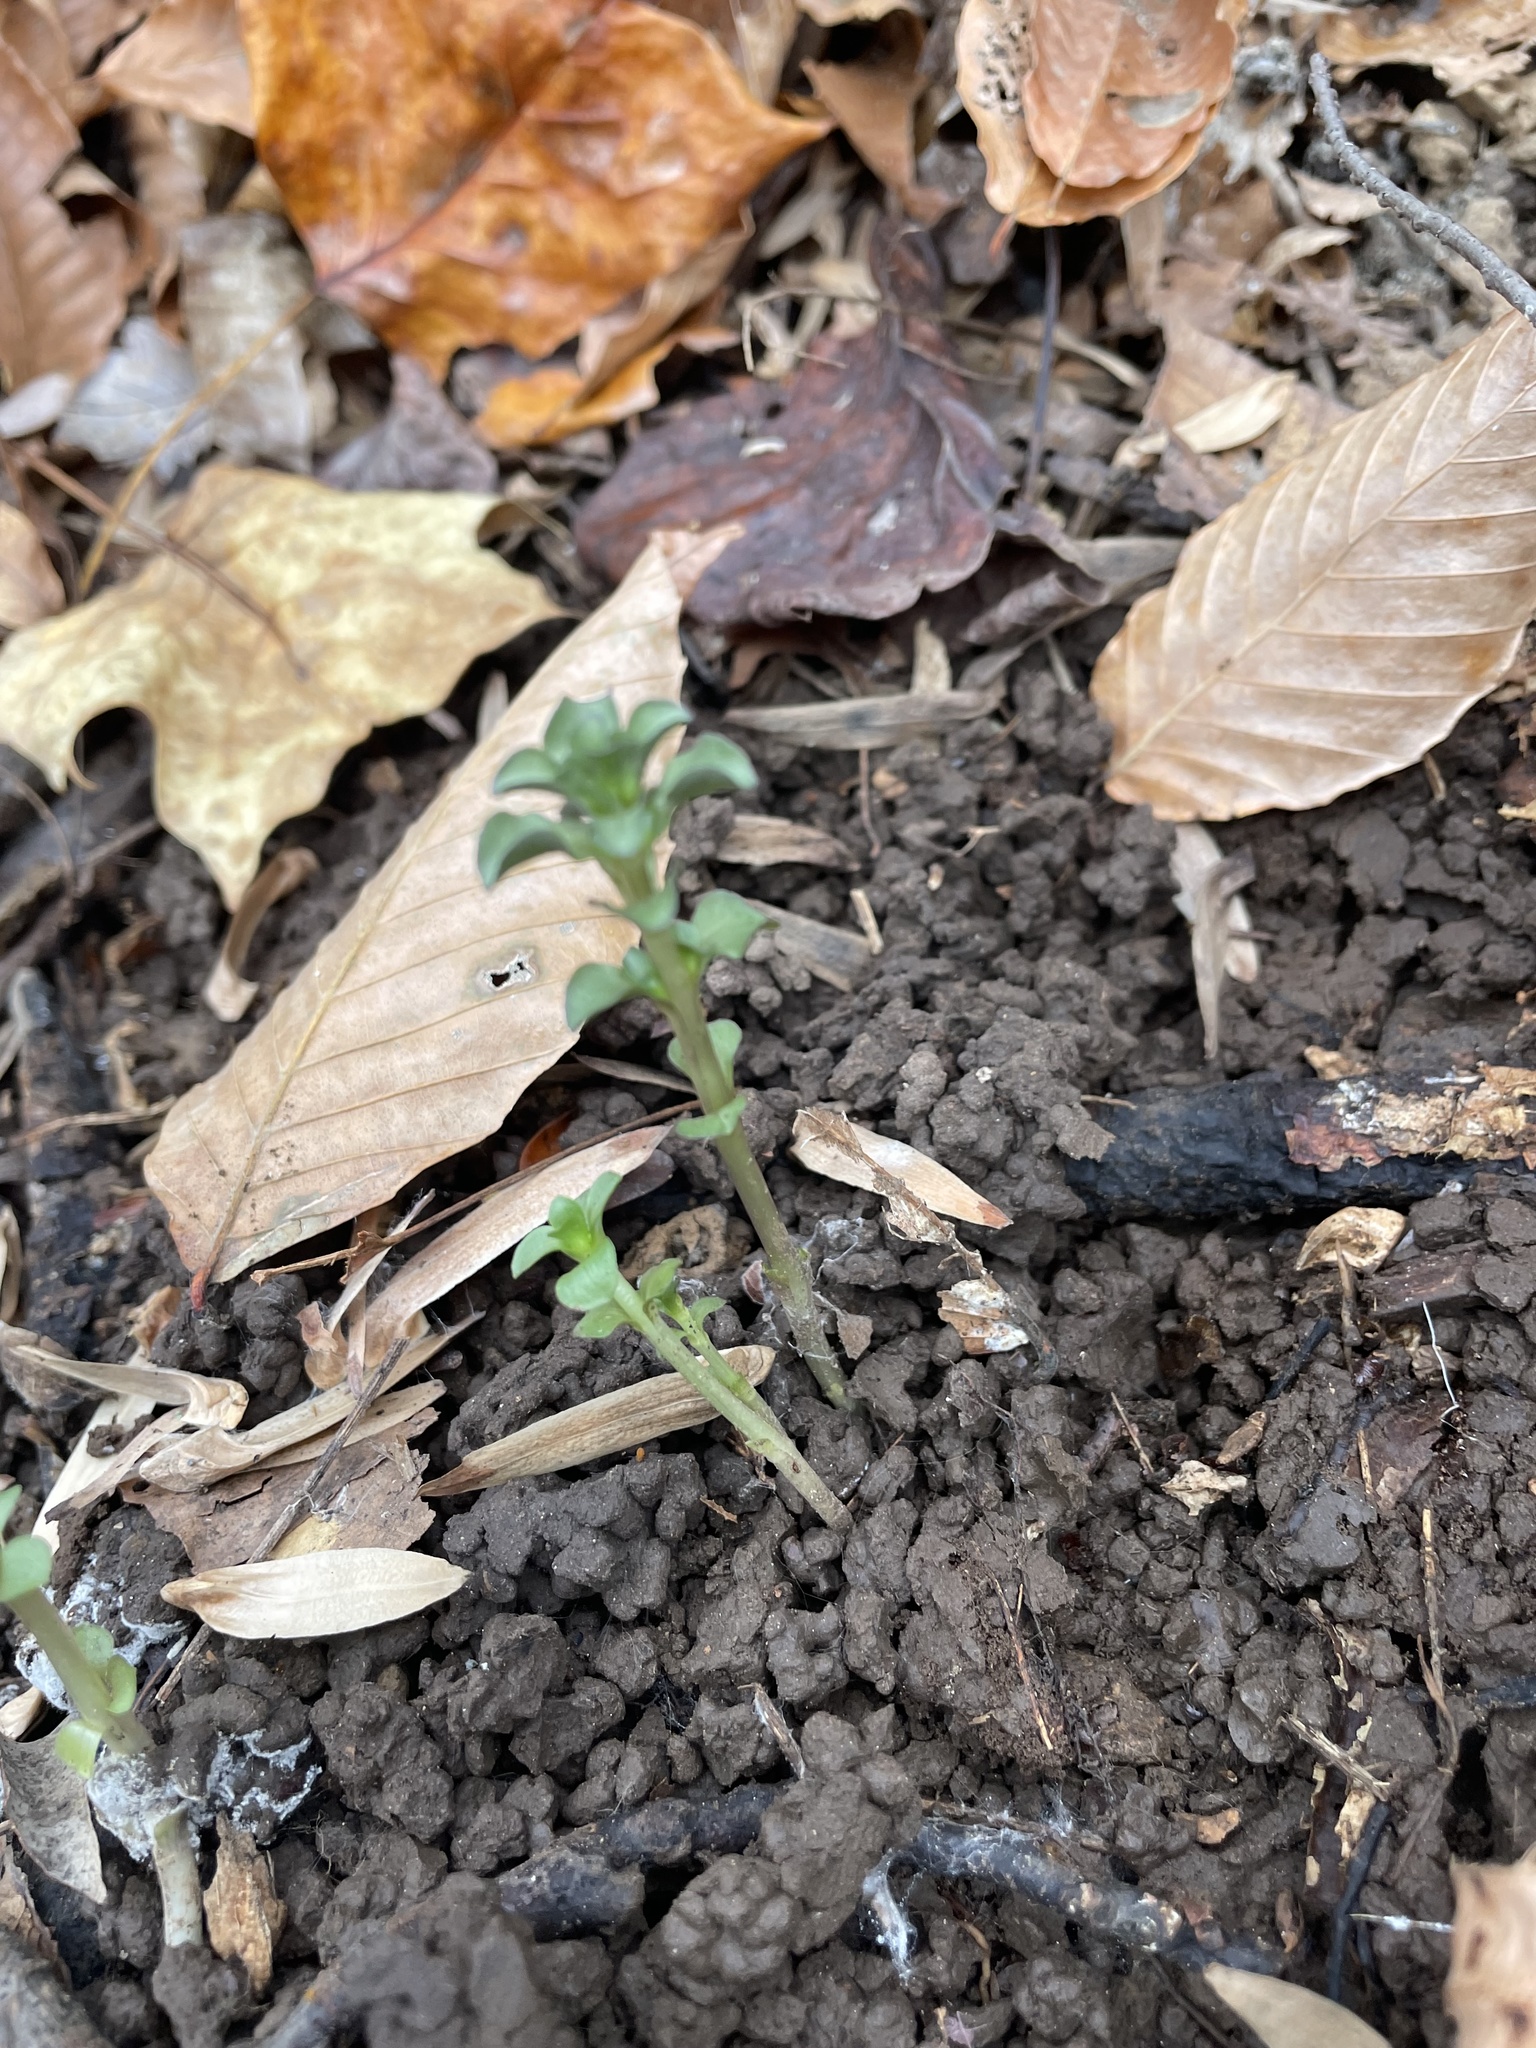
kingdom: Plantae
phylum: Tracheophyta
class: Magnoliopsida
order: Gentianales
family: Gentianaceae
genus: Obolaria
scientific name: Obolaria virginica
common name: Pennywort
